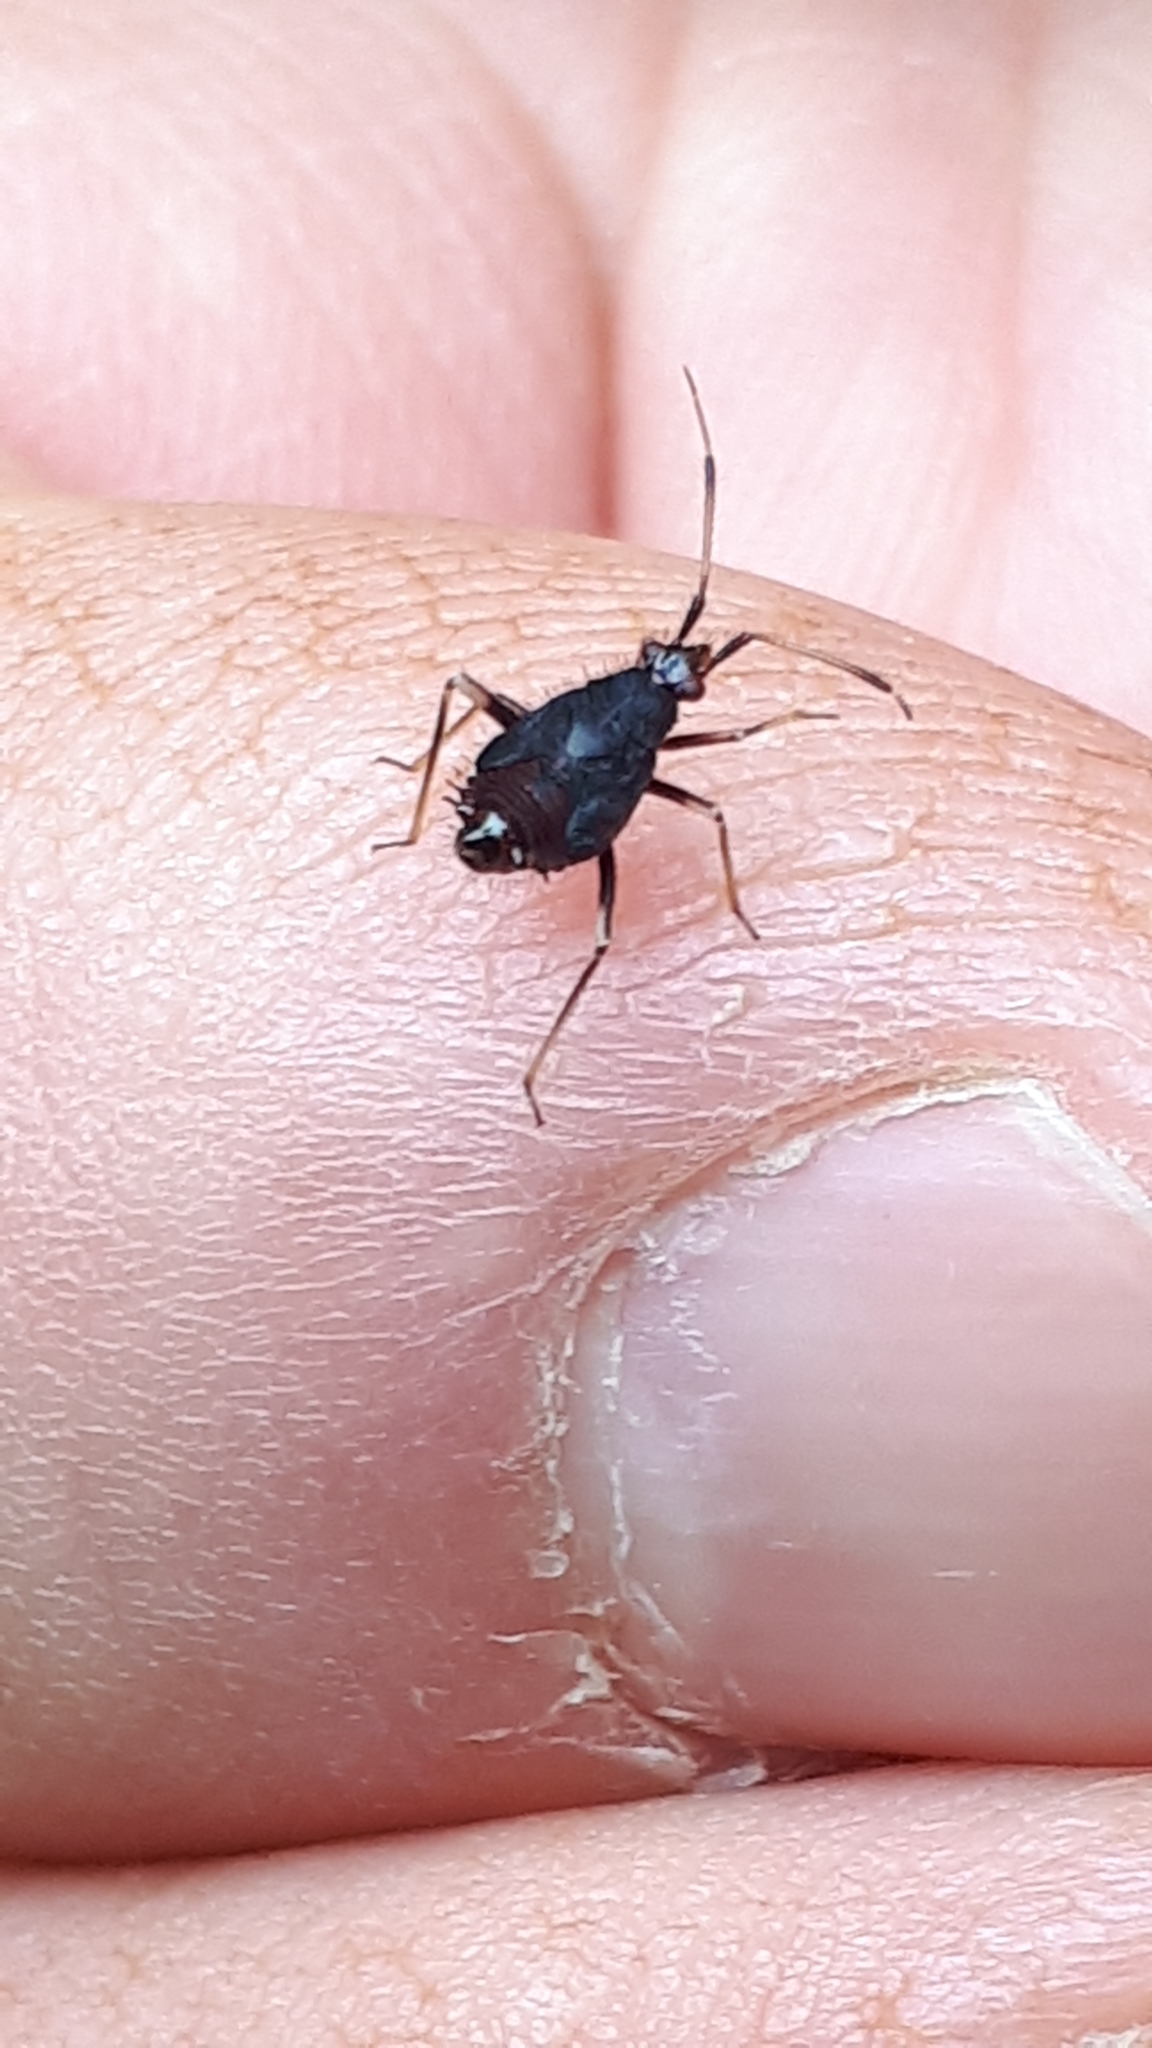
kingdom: Animalia
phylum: Arthropoda
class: Insecta
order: Hemiptera
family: Miridae
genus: Deraeocoris
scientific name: Deraeocoris ruber
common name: Plant bug
